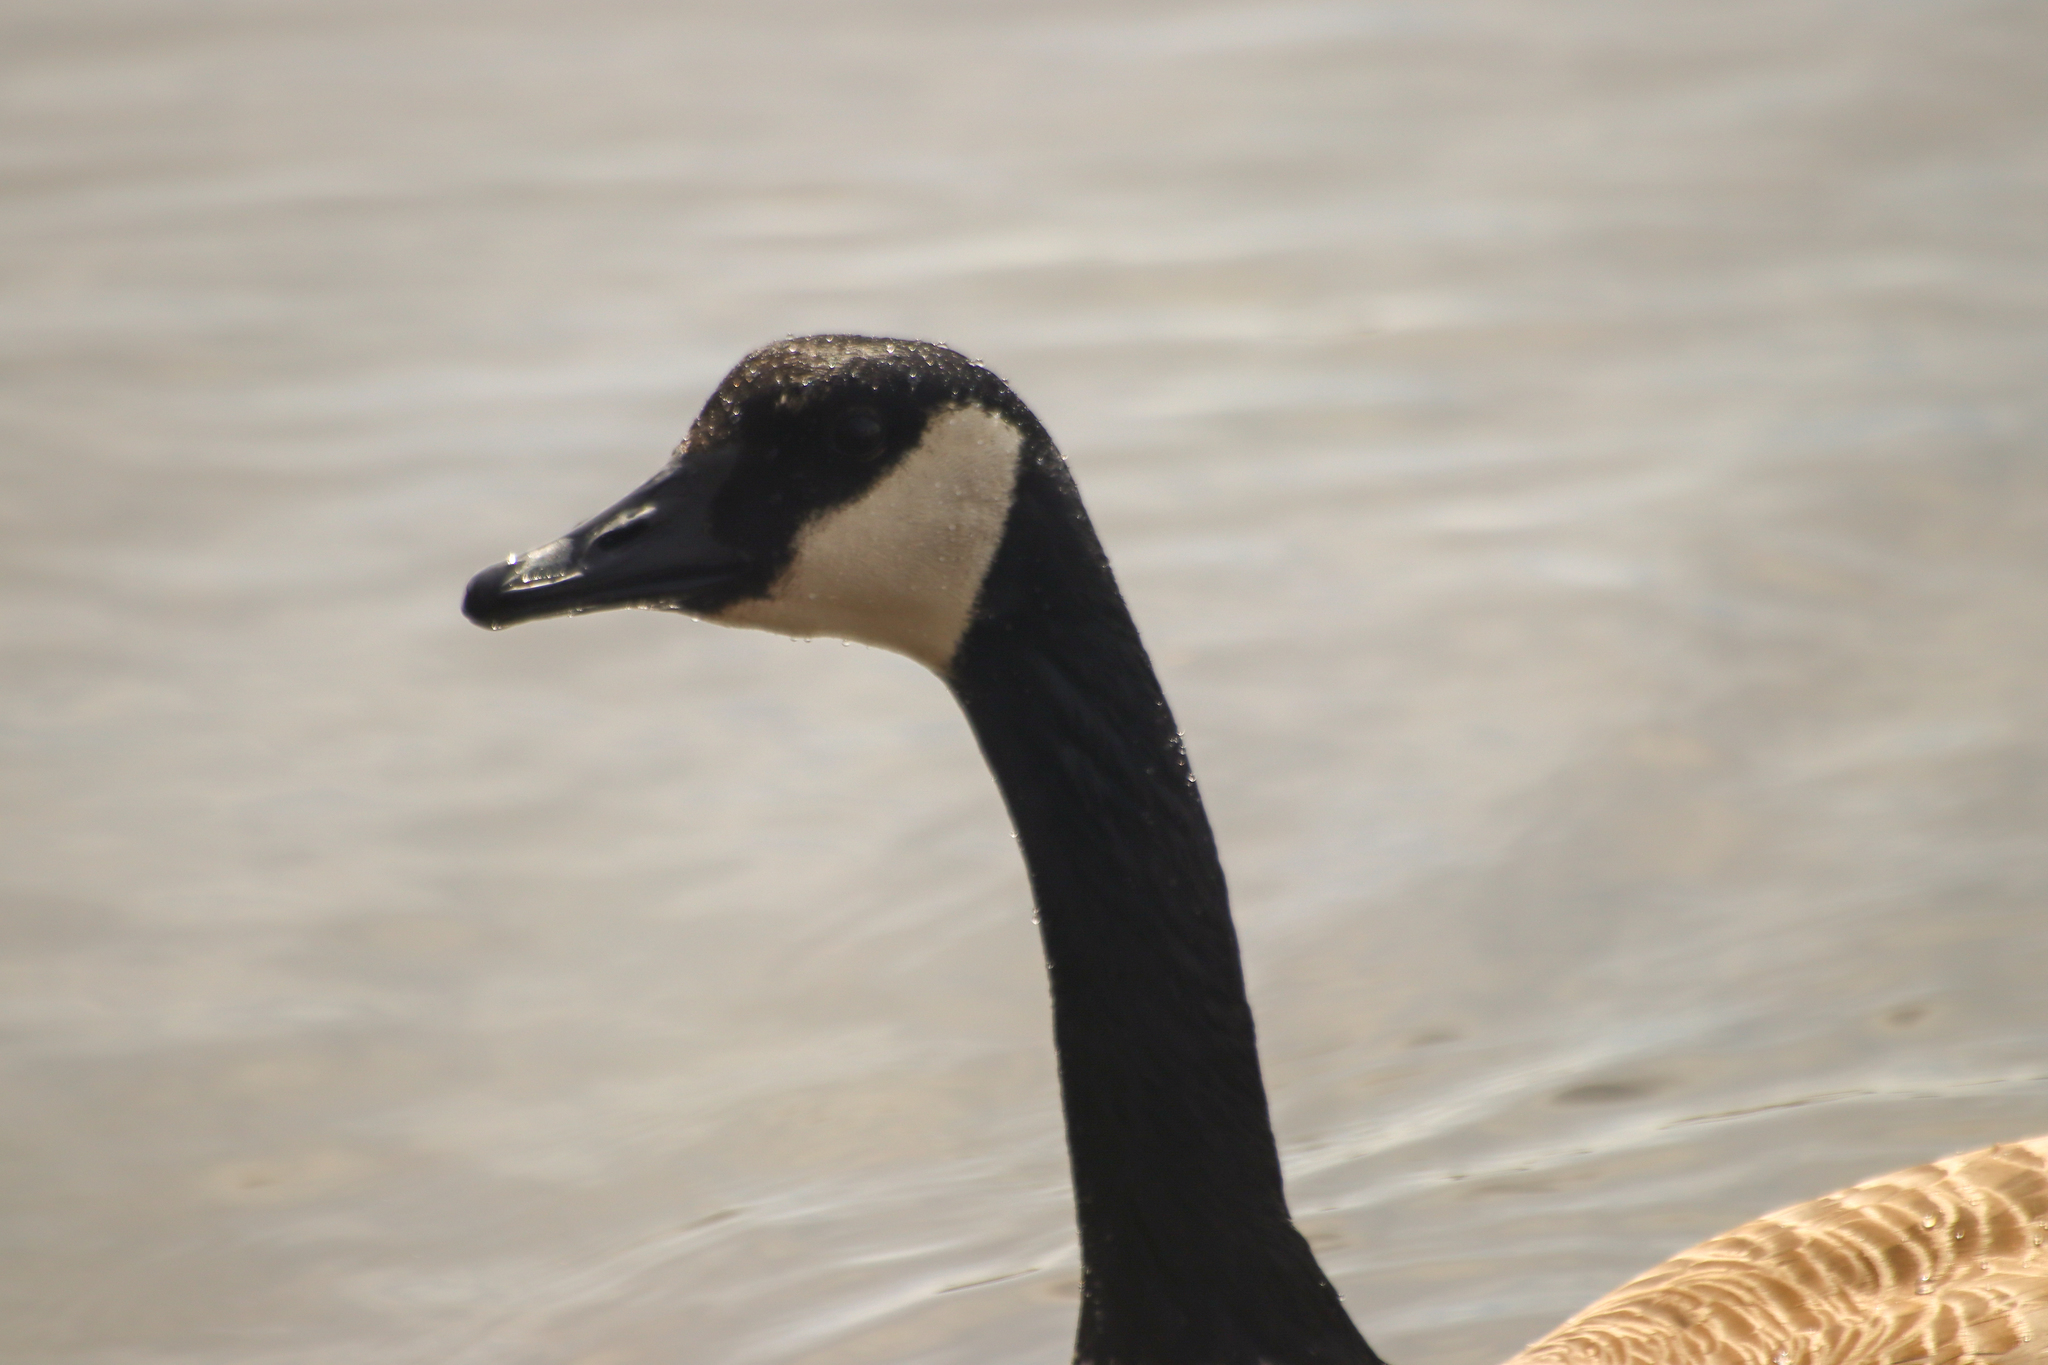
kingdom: Animalia
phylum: Chordata
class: Aves
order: Anseriformes
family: Anatidae
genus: Branta
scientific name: Branta canadensis
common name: Canada goose
